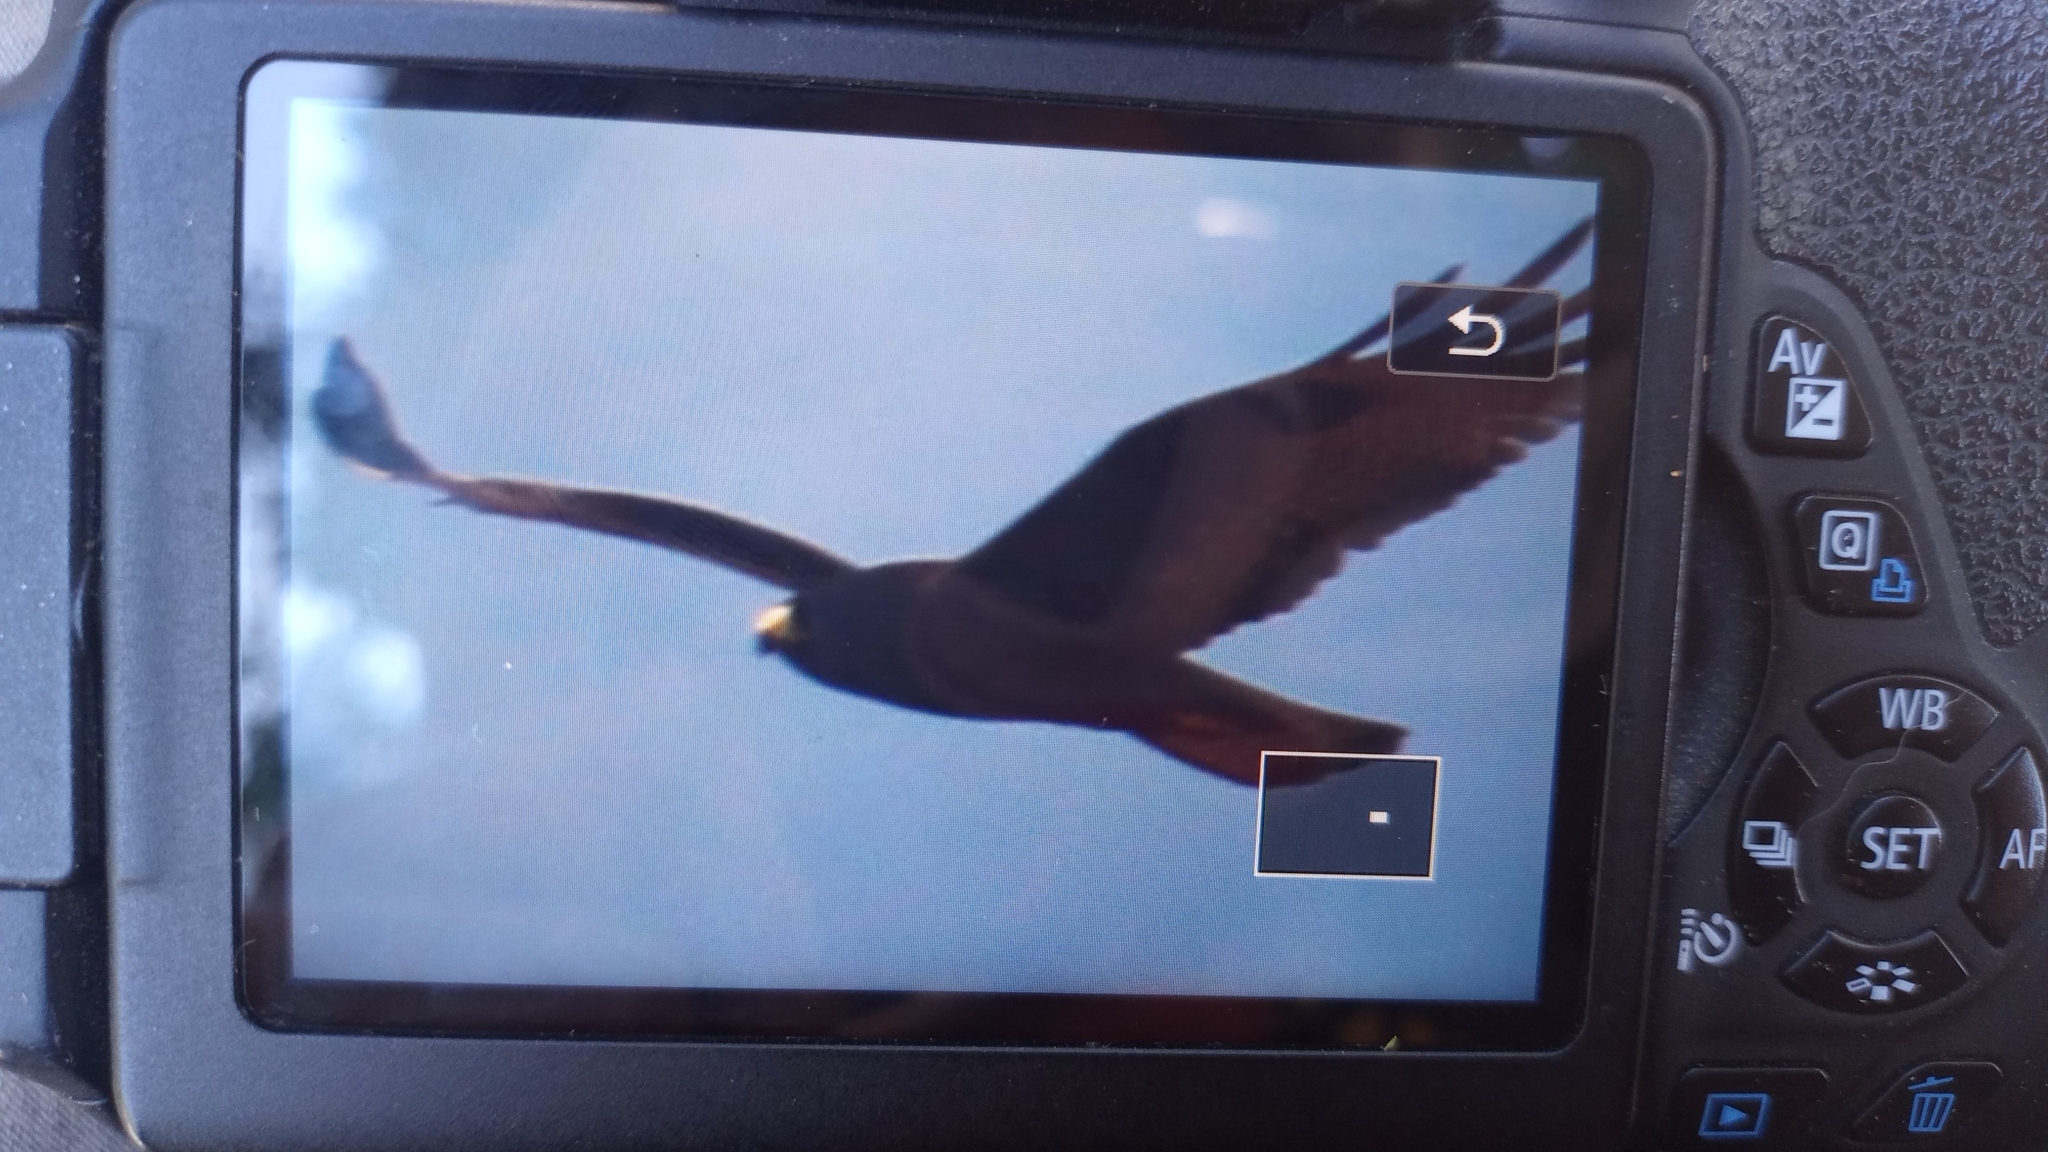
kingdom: Animalia
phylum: Chordata
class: Aves
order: Accipitriformes
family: Accipitridae
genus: Buteo
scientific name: Buteo albonotatus
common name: Zone-tailed hawk
